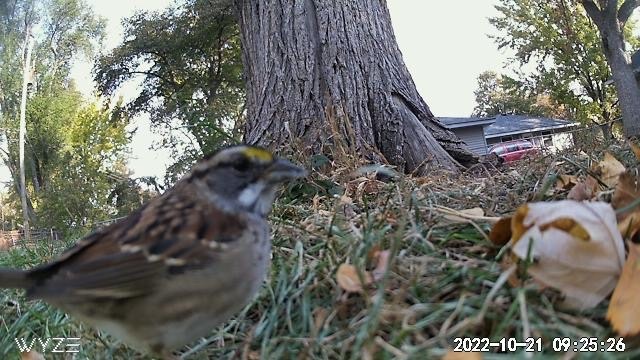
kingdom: Animalia
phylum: Chordata
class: Aves
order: Passeriformes
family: Passerellidae
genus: Zonotrichia
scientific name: Zonotrichia albicollis
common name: White-throated sparrow
